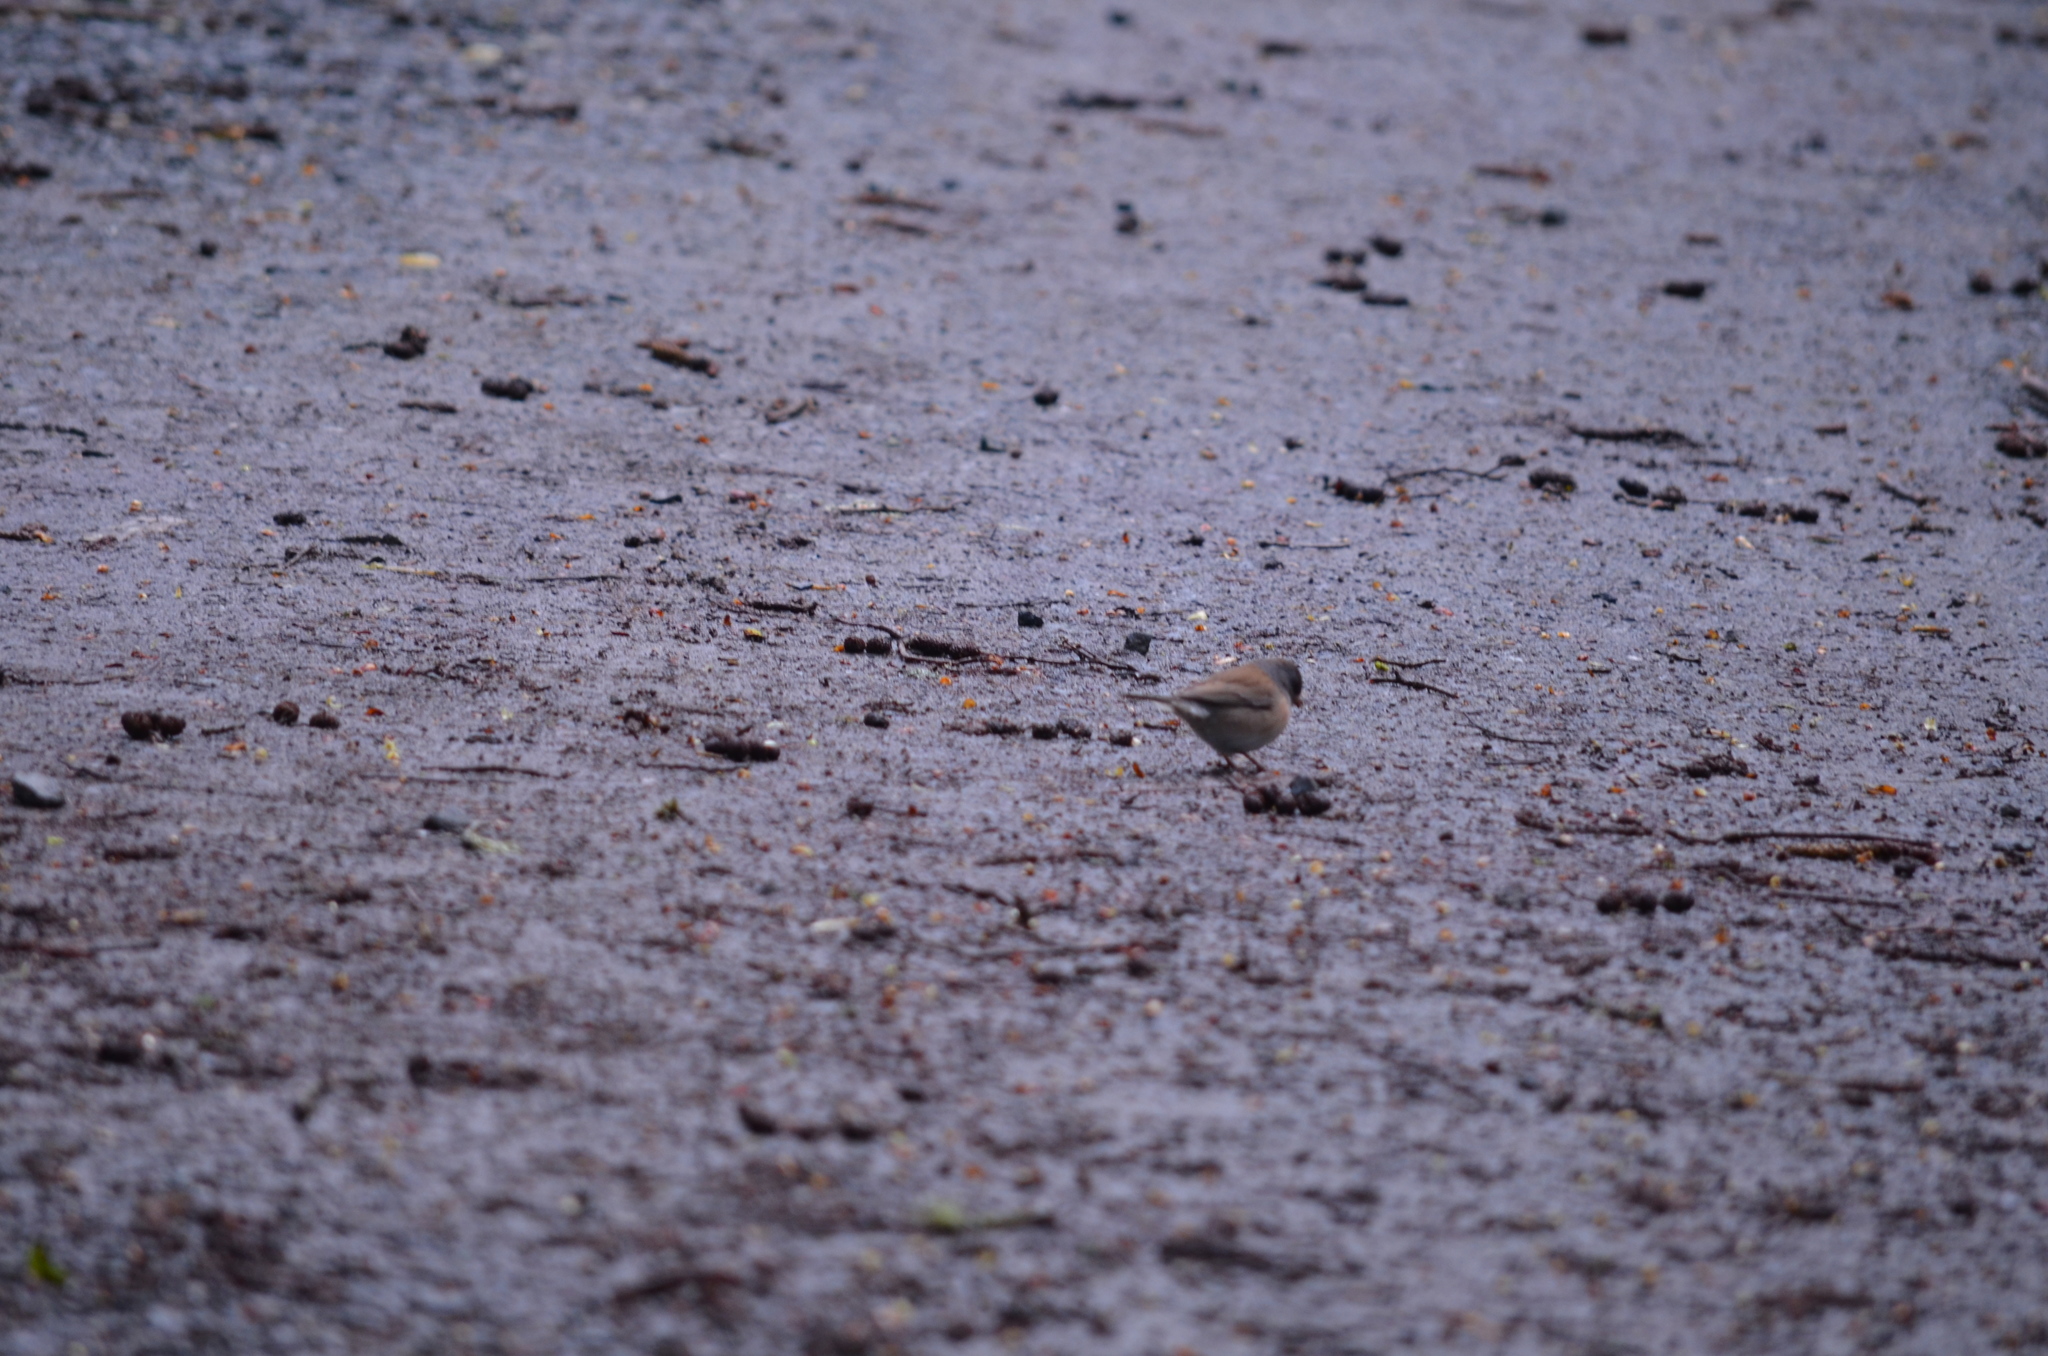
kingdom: Animalia
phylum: Chordata
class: Aves
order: Passeriformes
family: Passerellidae
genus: Junco
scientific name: Junco hyemalis
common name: Dark-eyed junco
